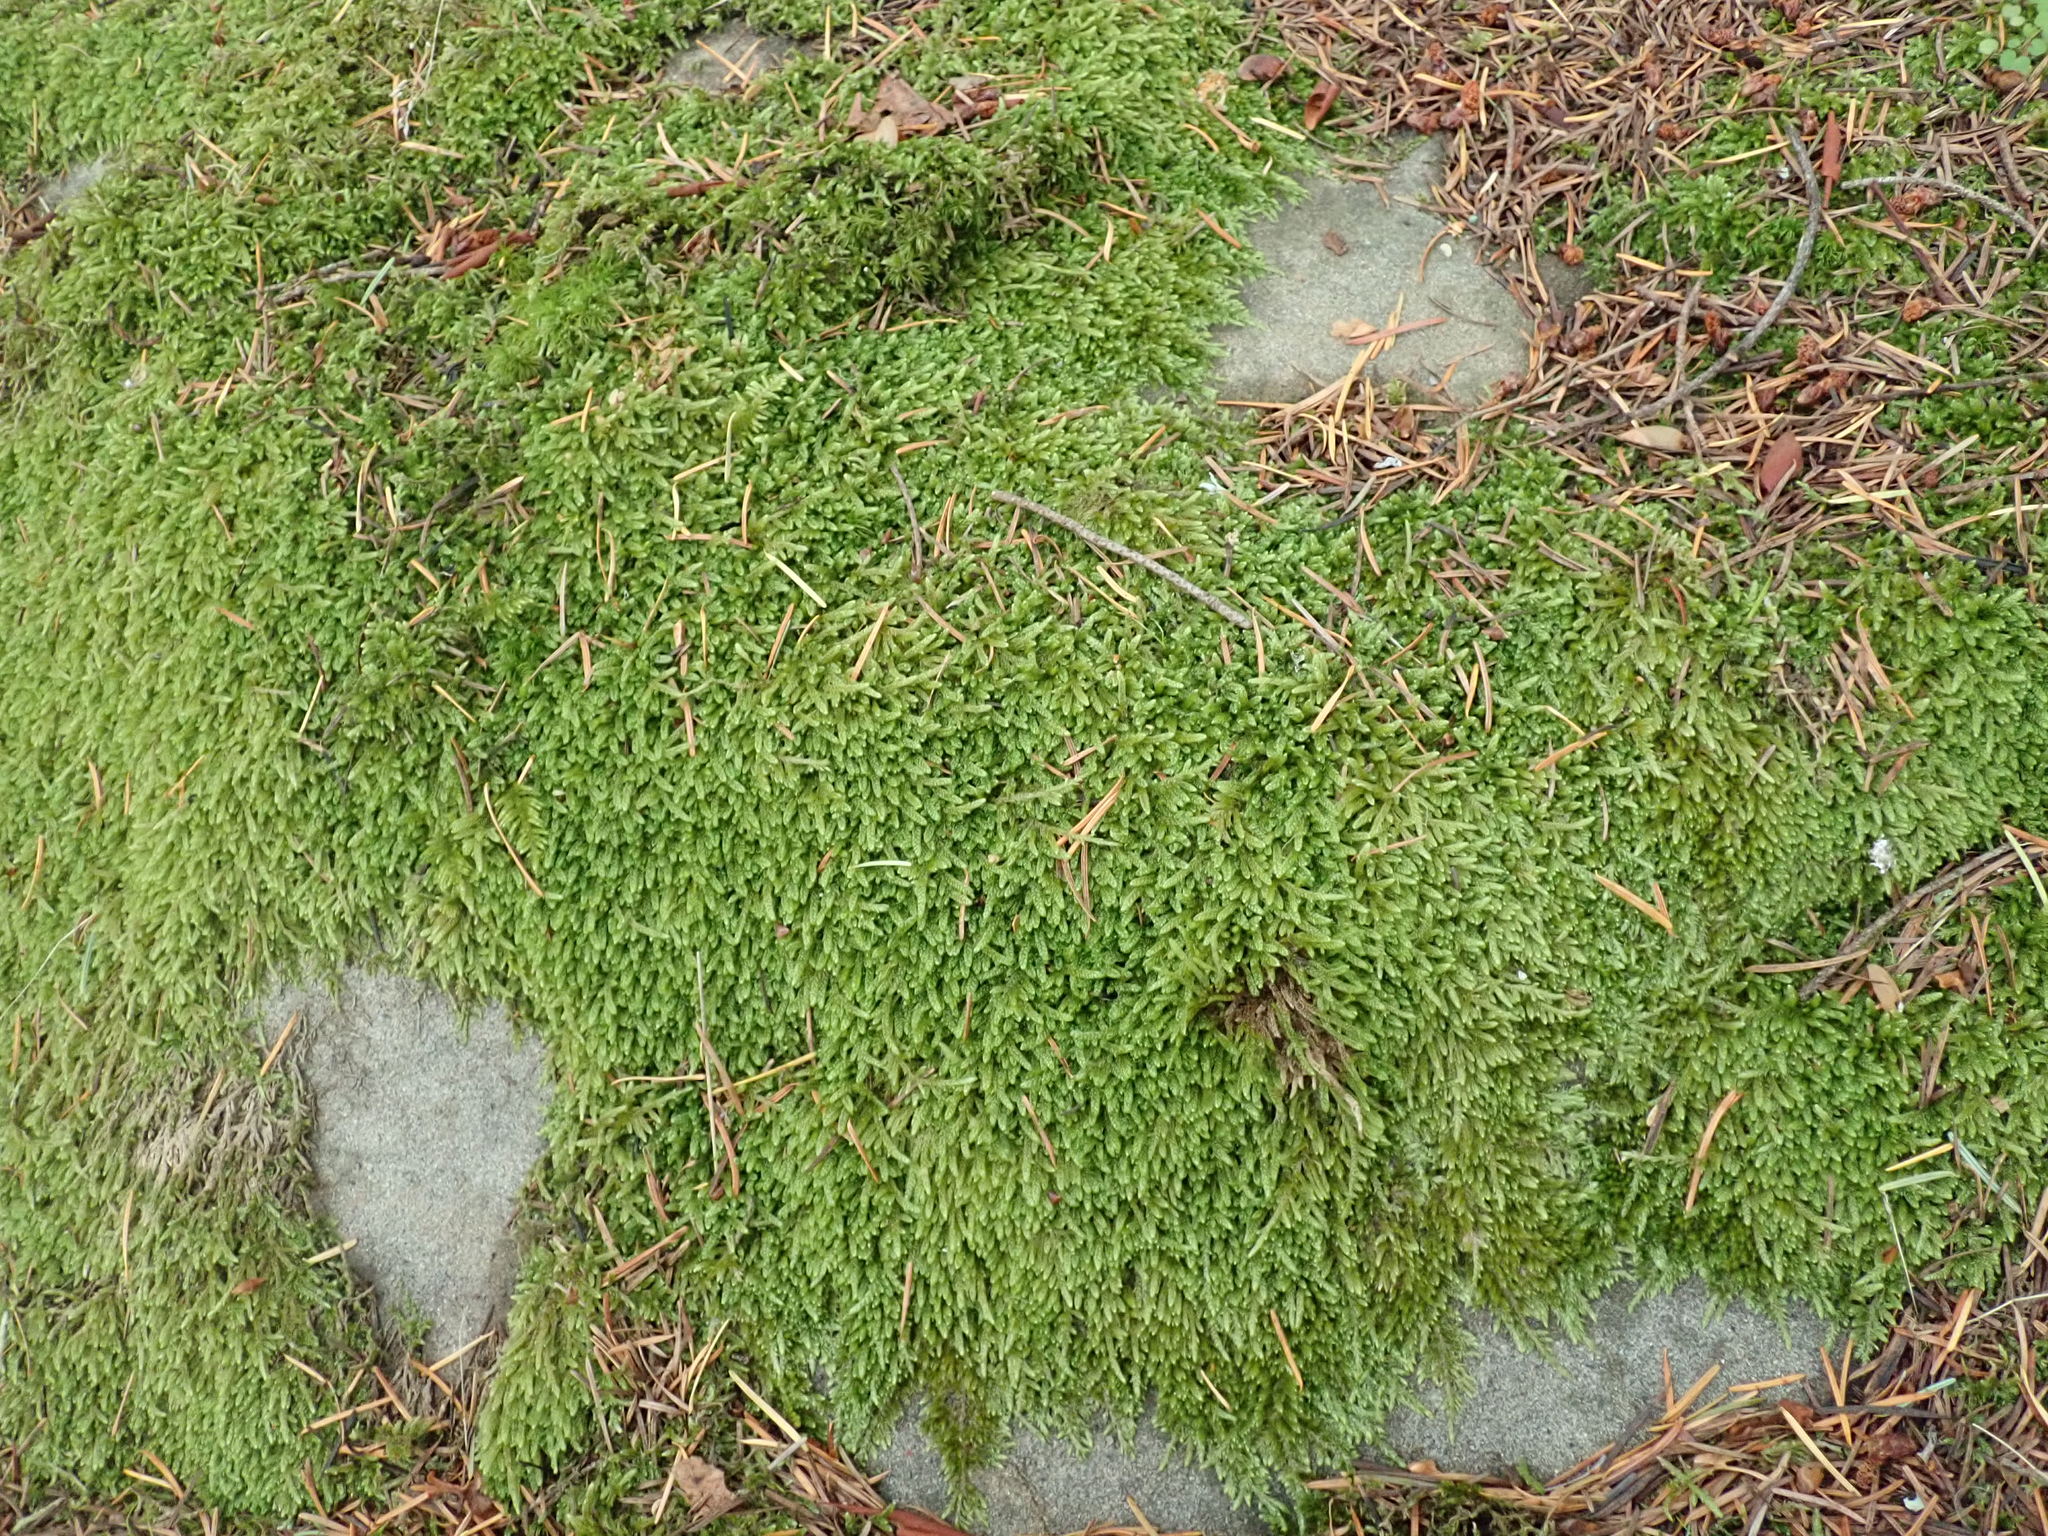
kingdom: Plantae
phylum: Bryophyta
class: Bryopsida
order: Hypnales
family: Hypnaceae
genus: Hypnum
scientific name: Hypnum cupressiforme
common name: Cypress-leaved plait-moss
